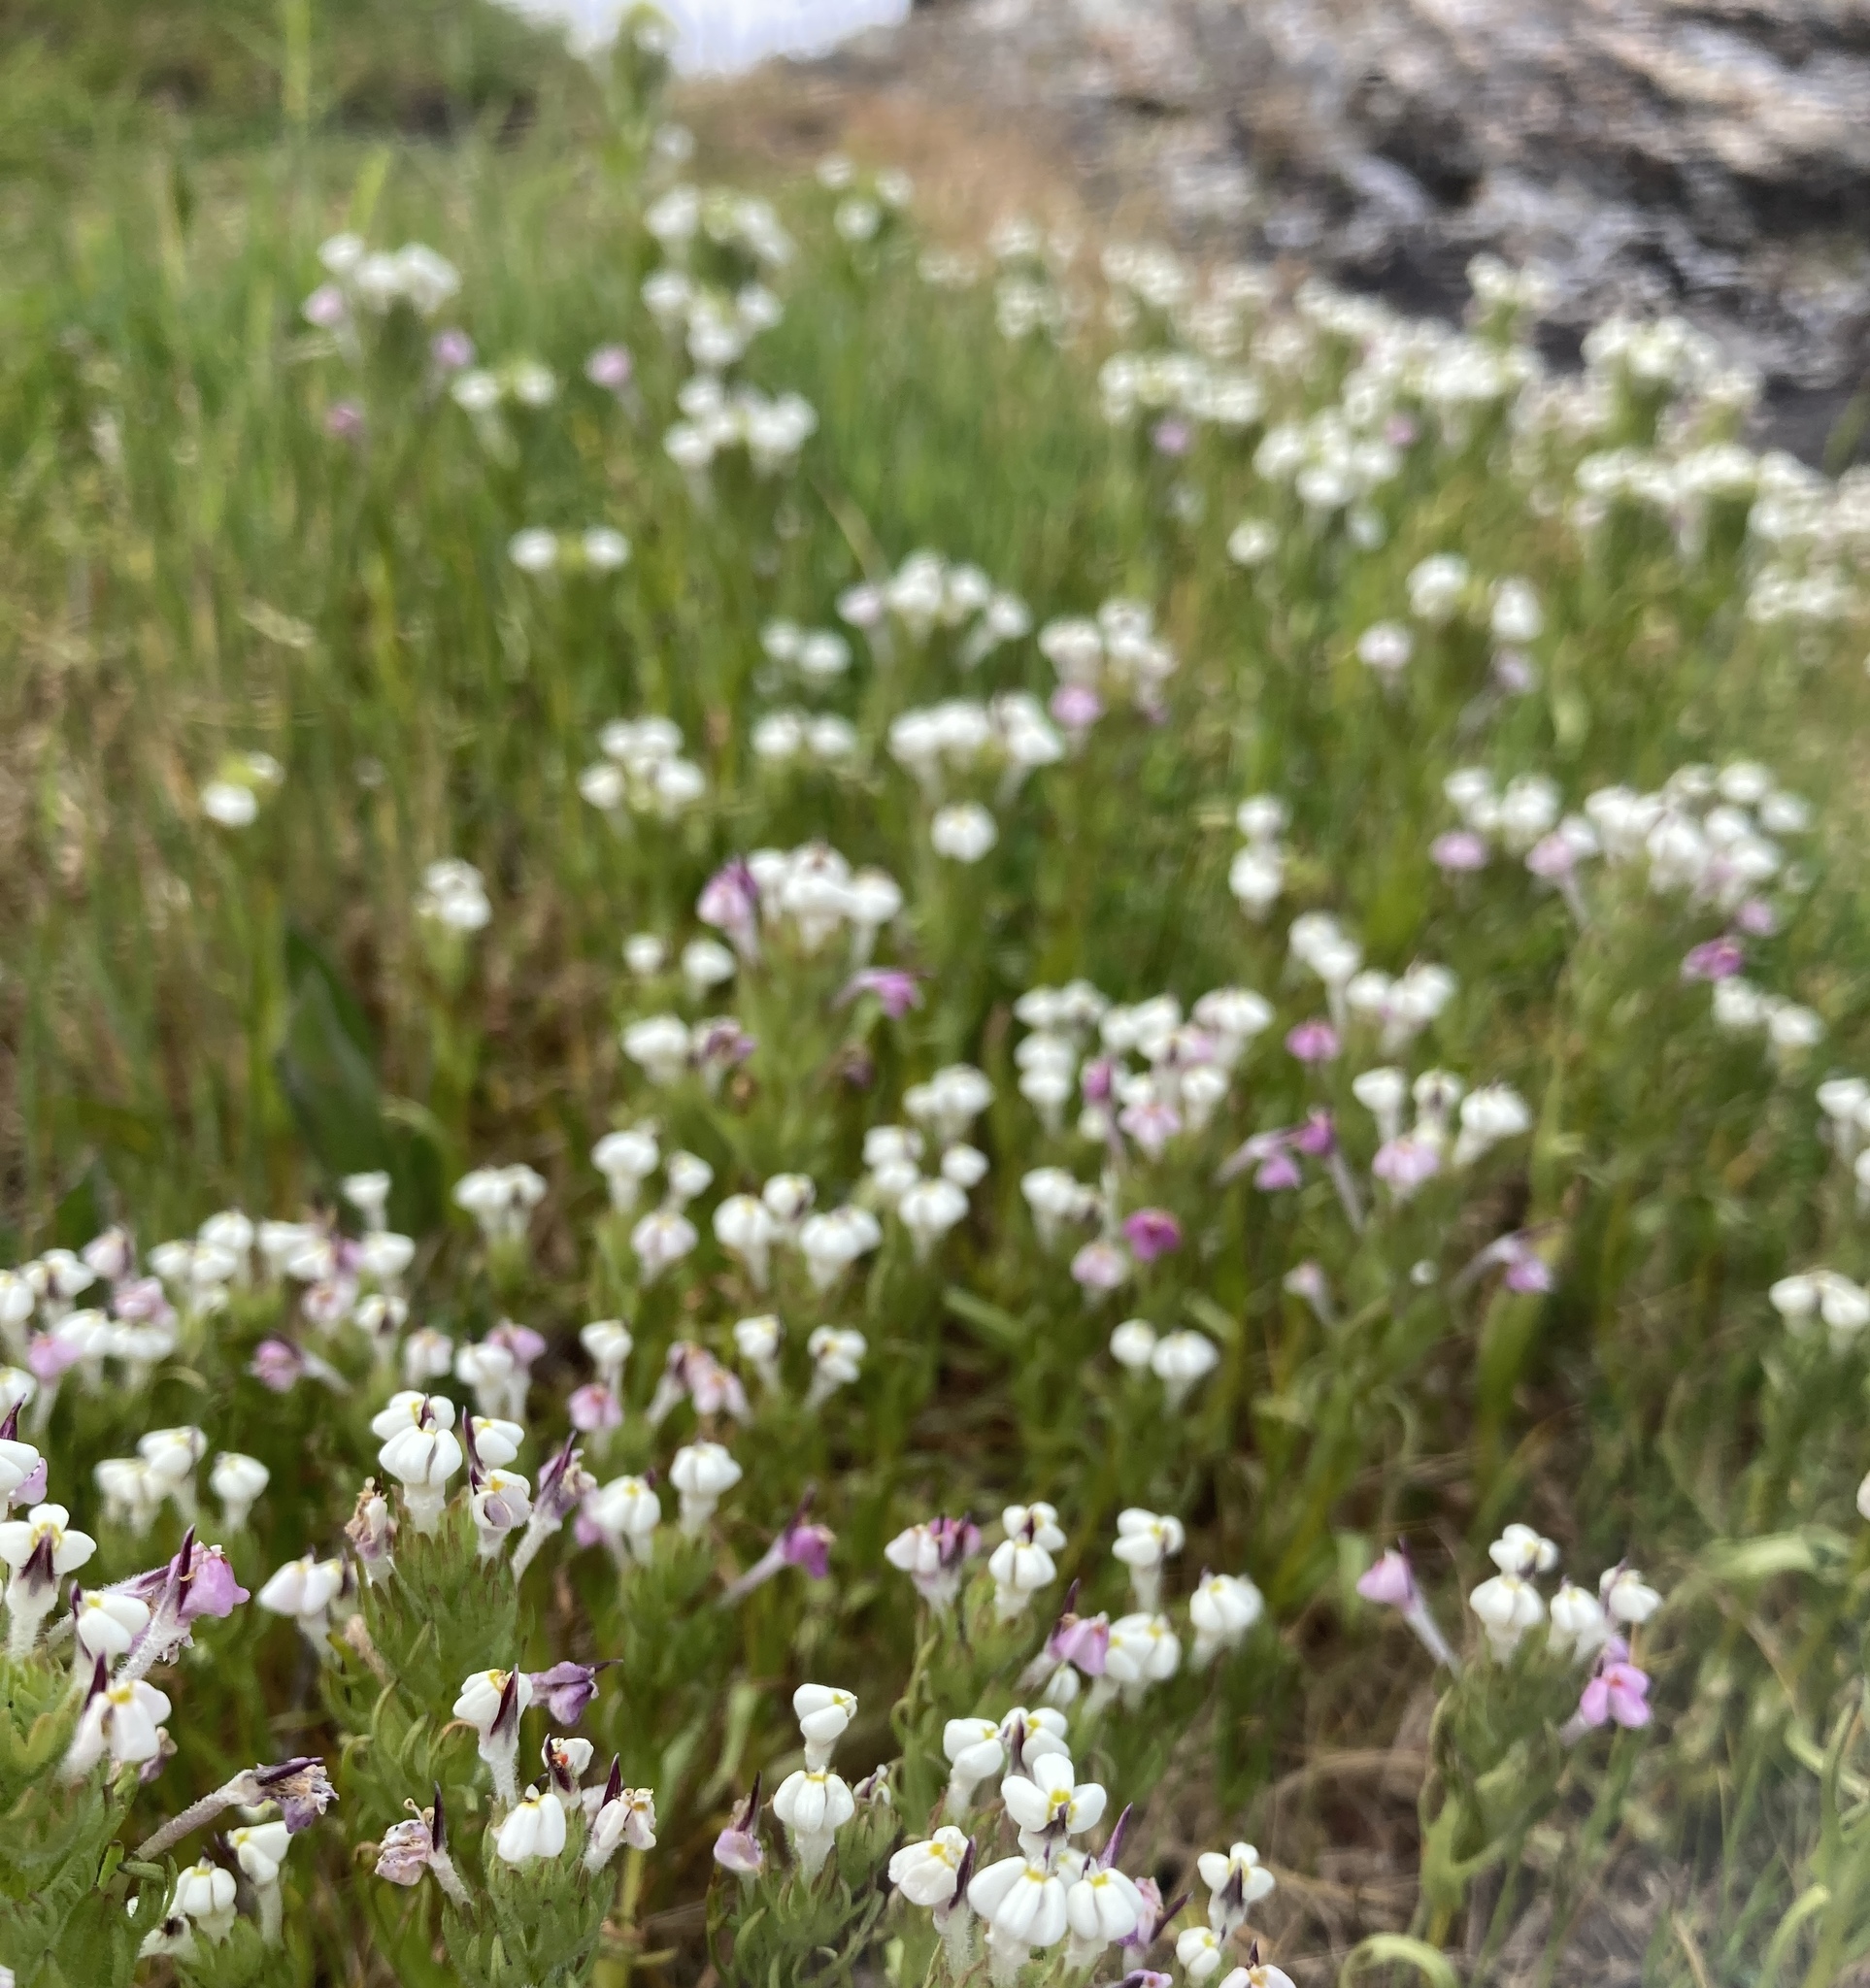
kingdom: Plantae
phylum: Tracheophyta
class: Magnoliopsida
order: Lamiales
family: Orobanchaceae
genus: Triphysaria
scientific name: Triphysaria versicolor
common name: Bearded false owl-clover
